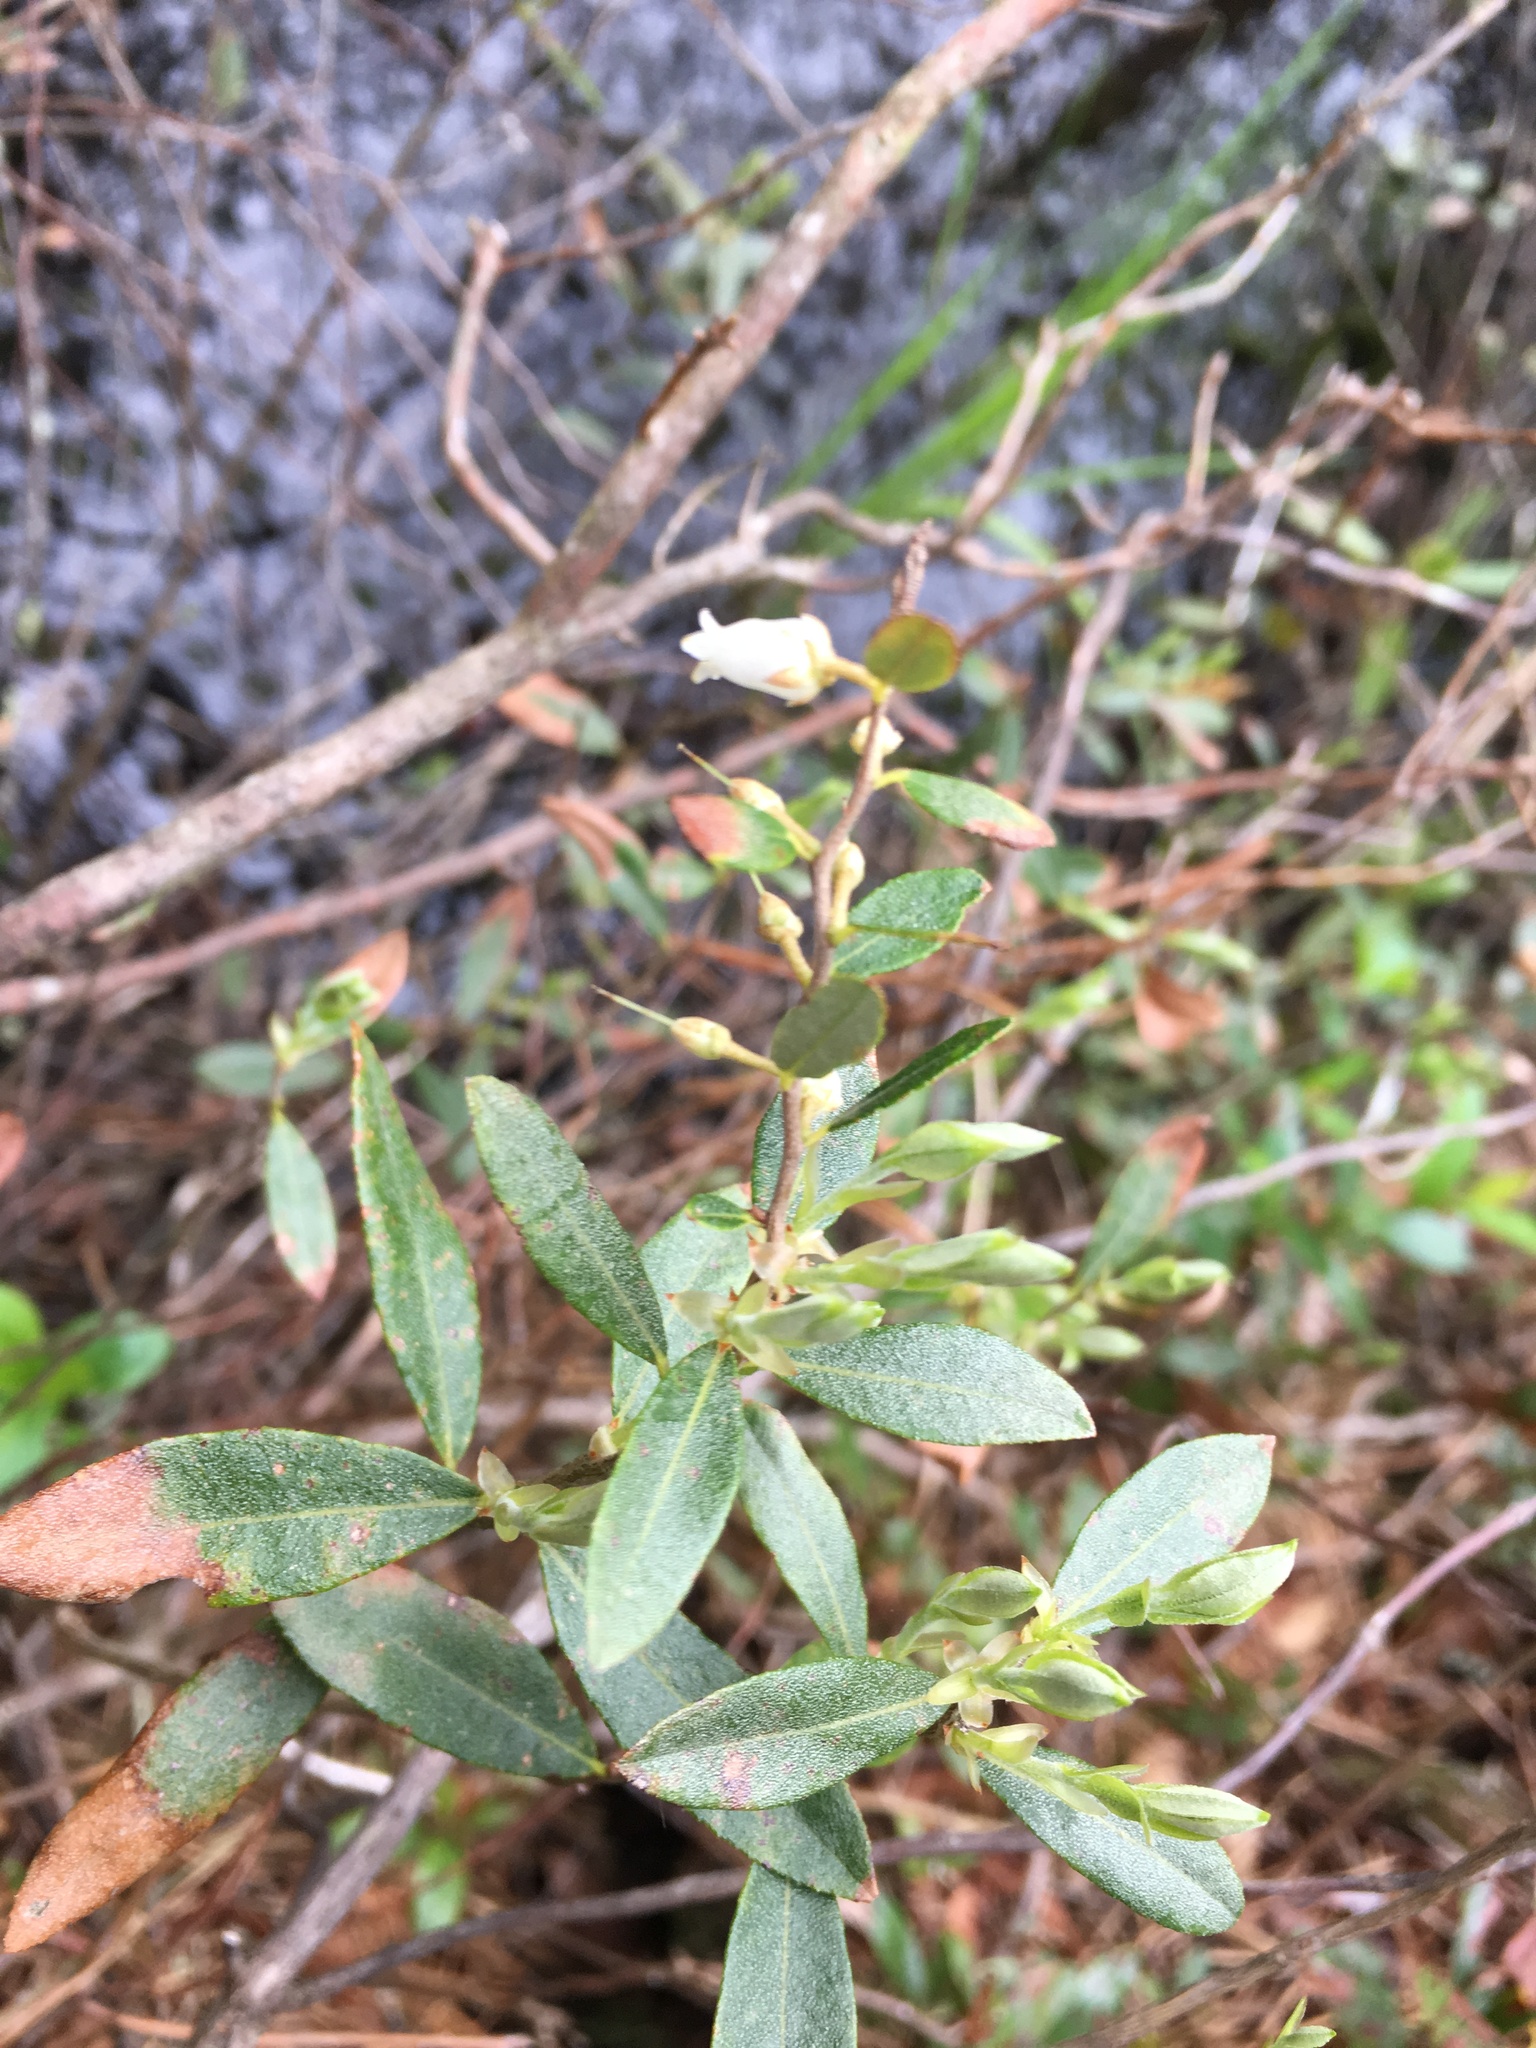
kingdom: Plantae
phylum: Tracheophyta
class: Magnoliopsida
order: Ericales
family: Ericaceae
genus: Chamaedaphne
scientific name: Chamaedaphne calyculata
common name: Leatherleaf
